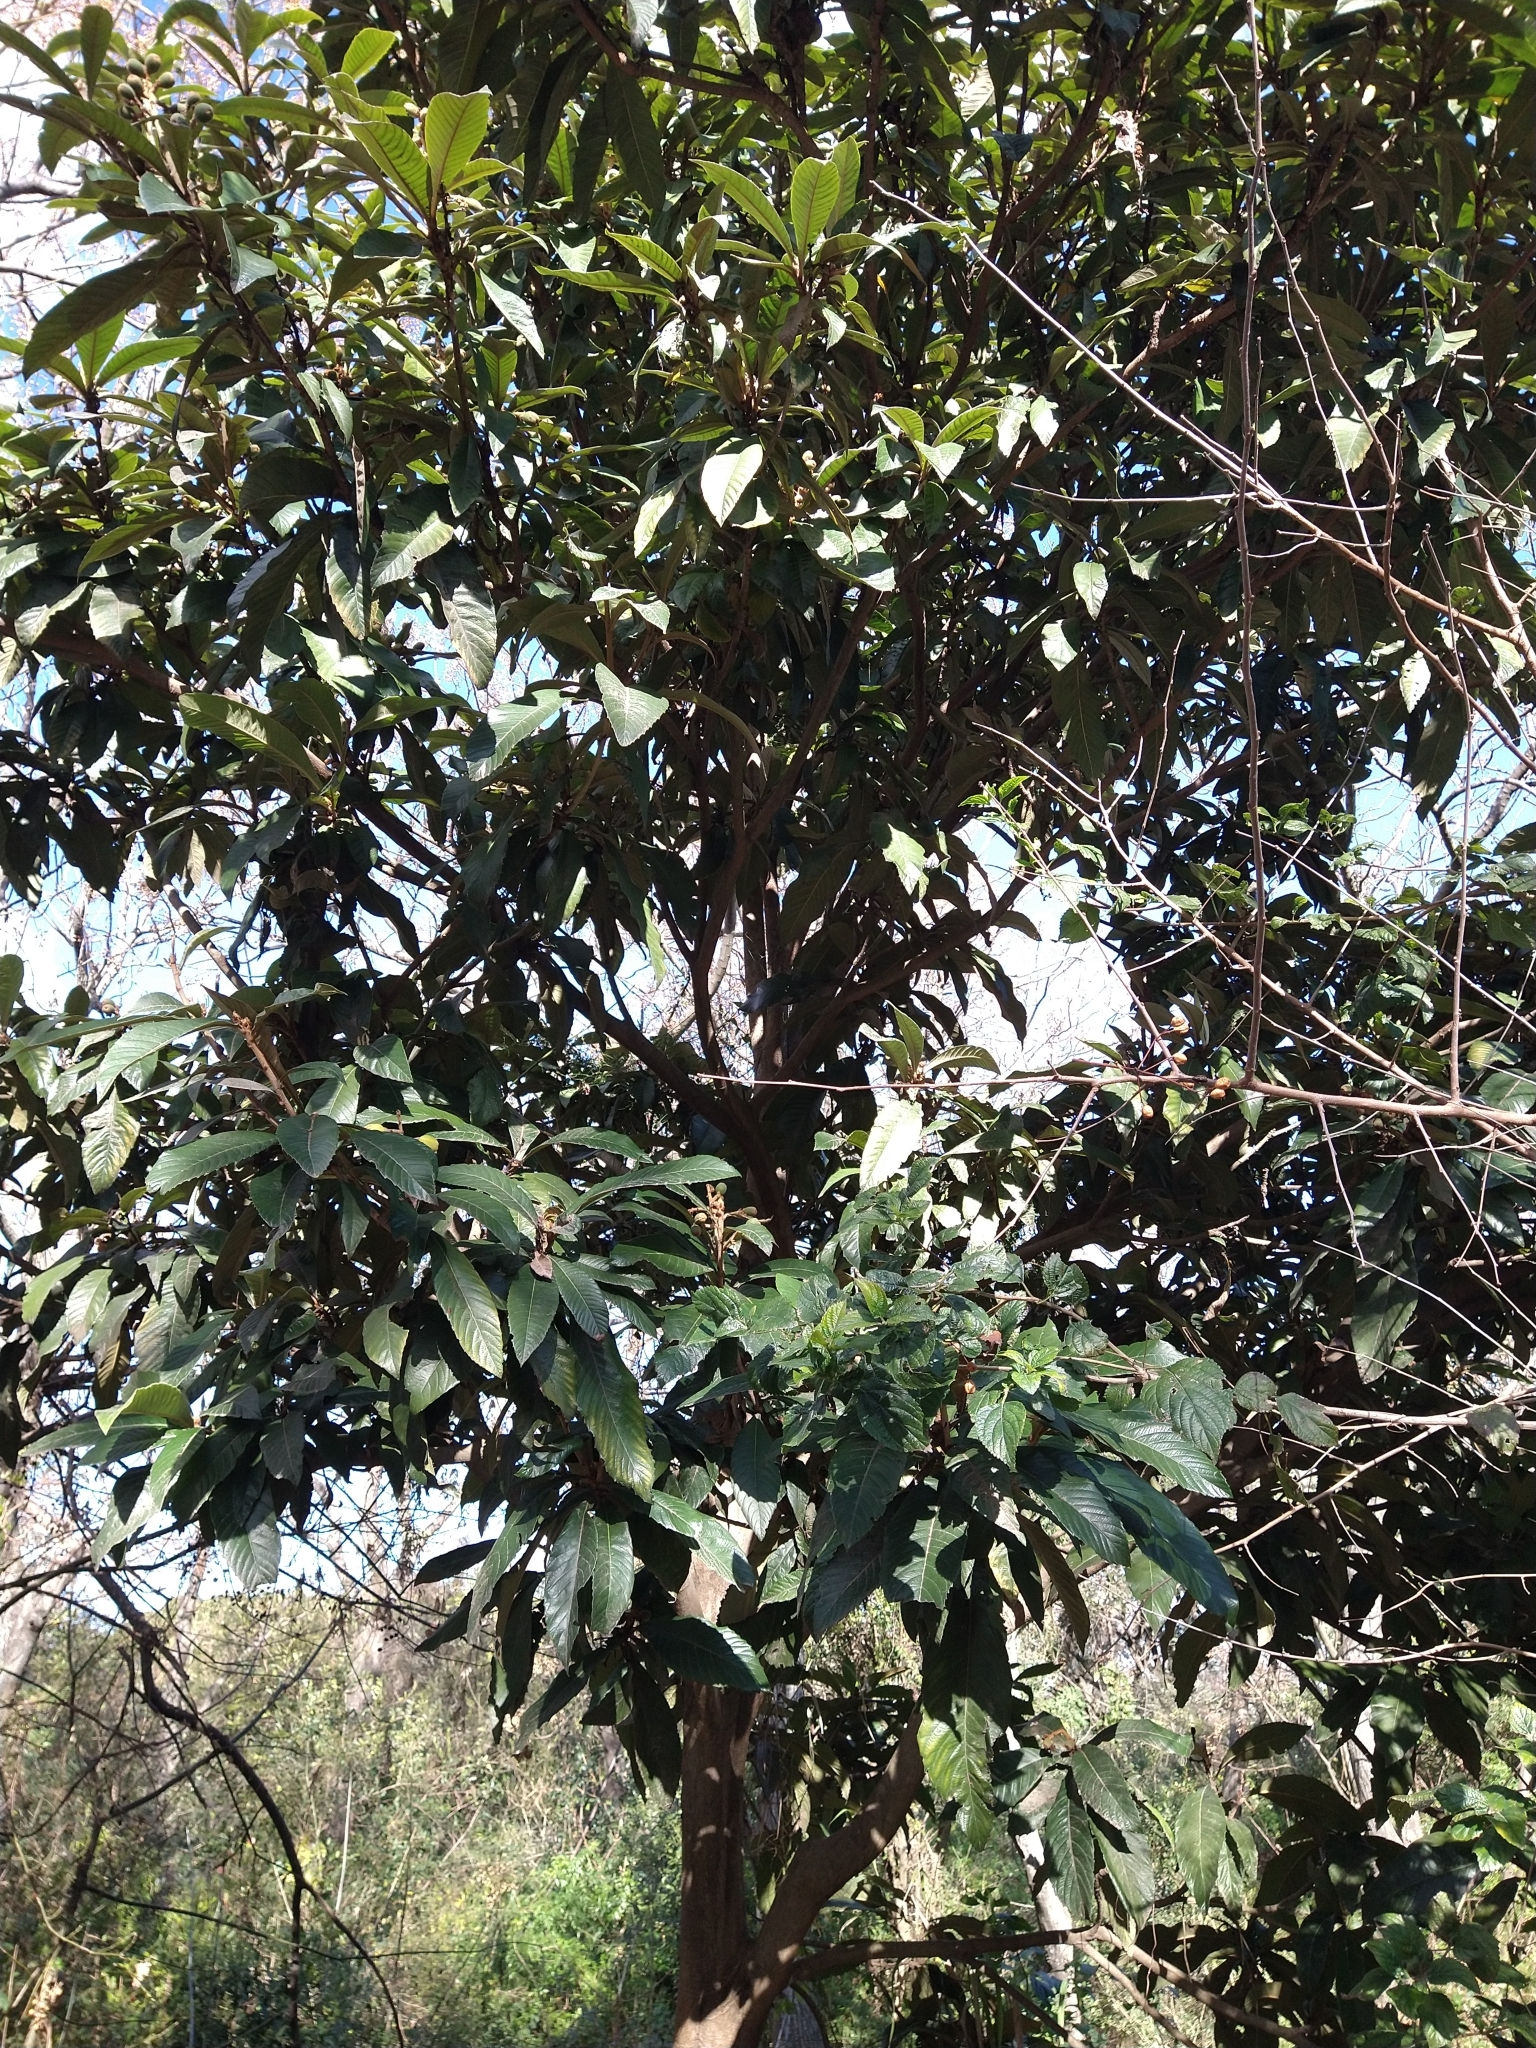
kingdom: Plantae
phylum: Tracheophyta
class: Magnoliopsida
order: Rosales
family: Rosaceae
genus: Rhaphiolepis
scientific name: Rhaphiolepis bibas
